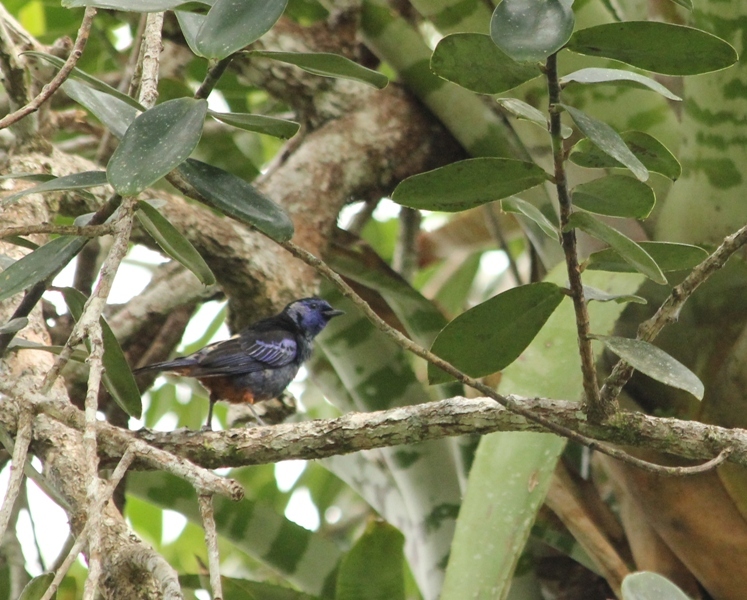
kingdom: Animalia
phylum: Chordata
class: Aves
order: Passeriformes
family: Thraupidae
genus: Tangara
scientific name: Tangara velia
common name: Opal-rumped tanager
